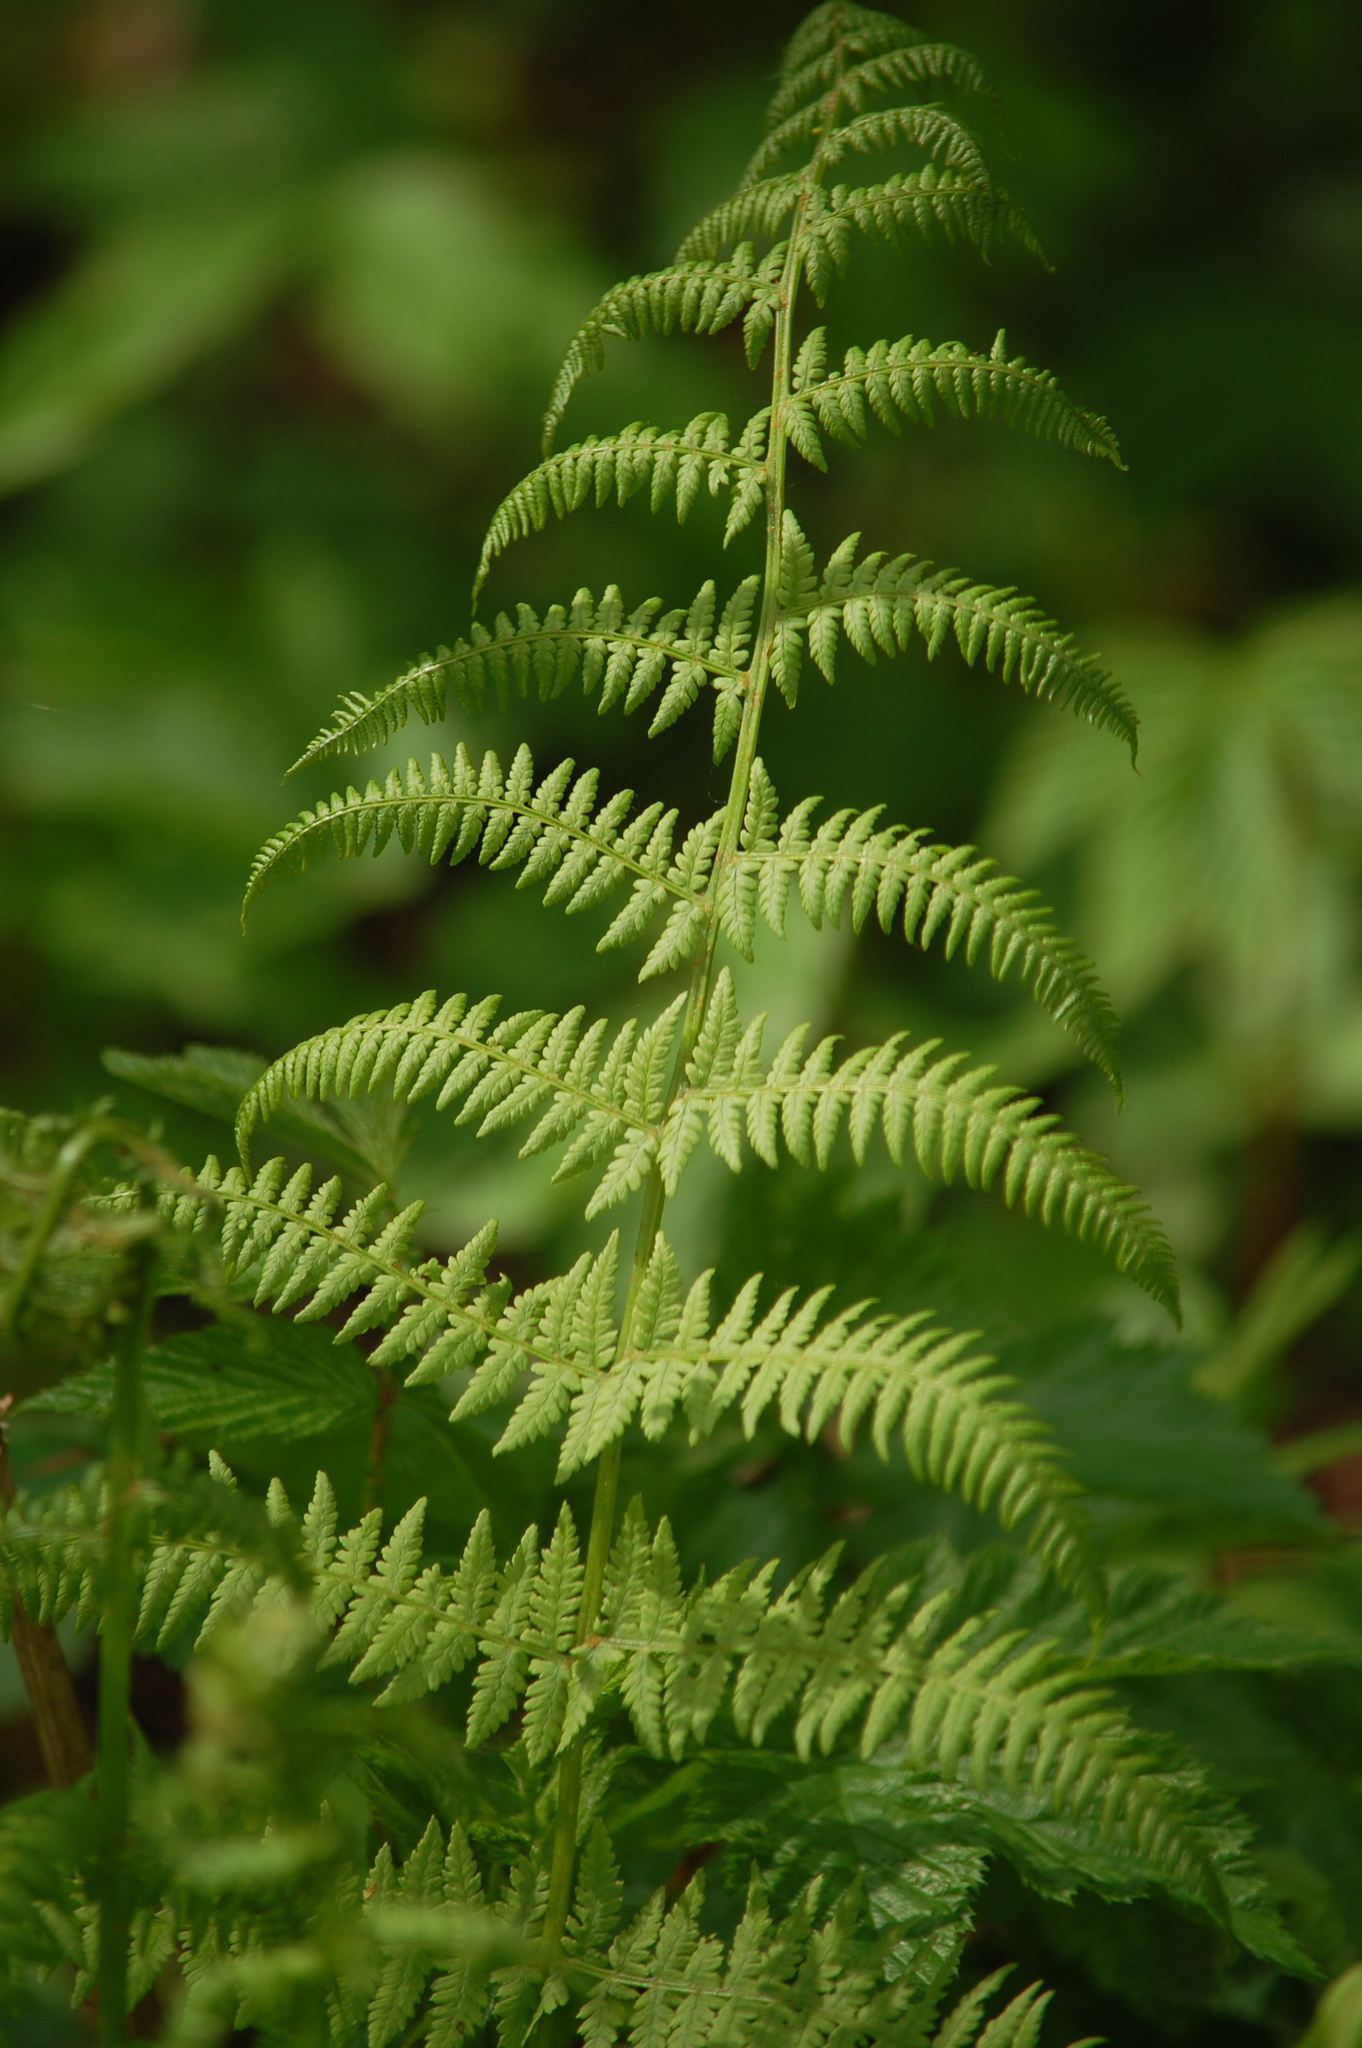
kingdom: Plantae
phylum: Tracheophyta
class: Polypodiopsida
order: Polypodiales
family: Athyriaceae
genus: Athyrium
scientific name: Athyrium filix-femina
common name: Lady fern
